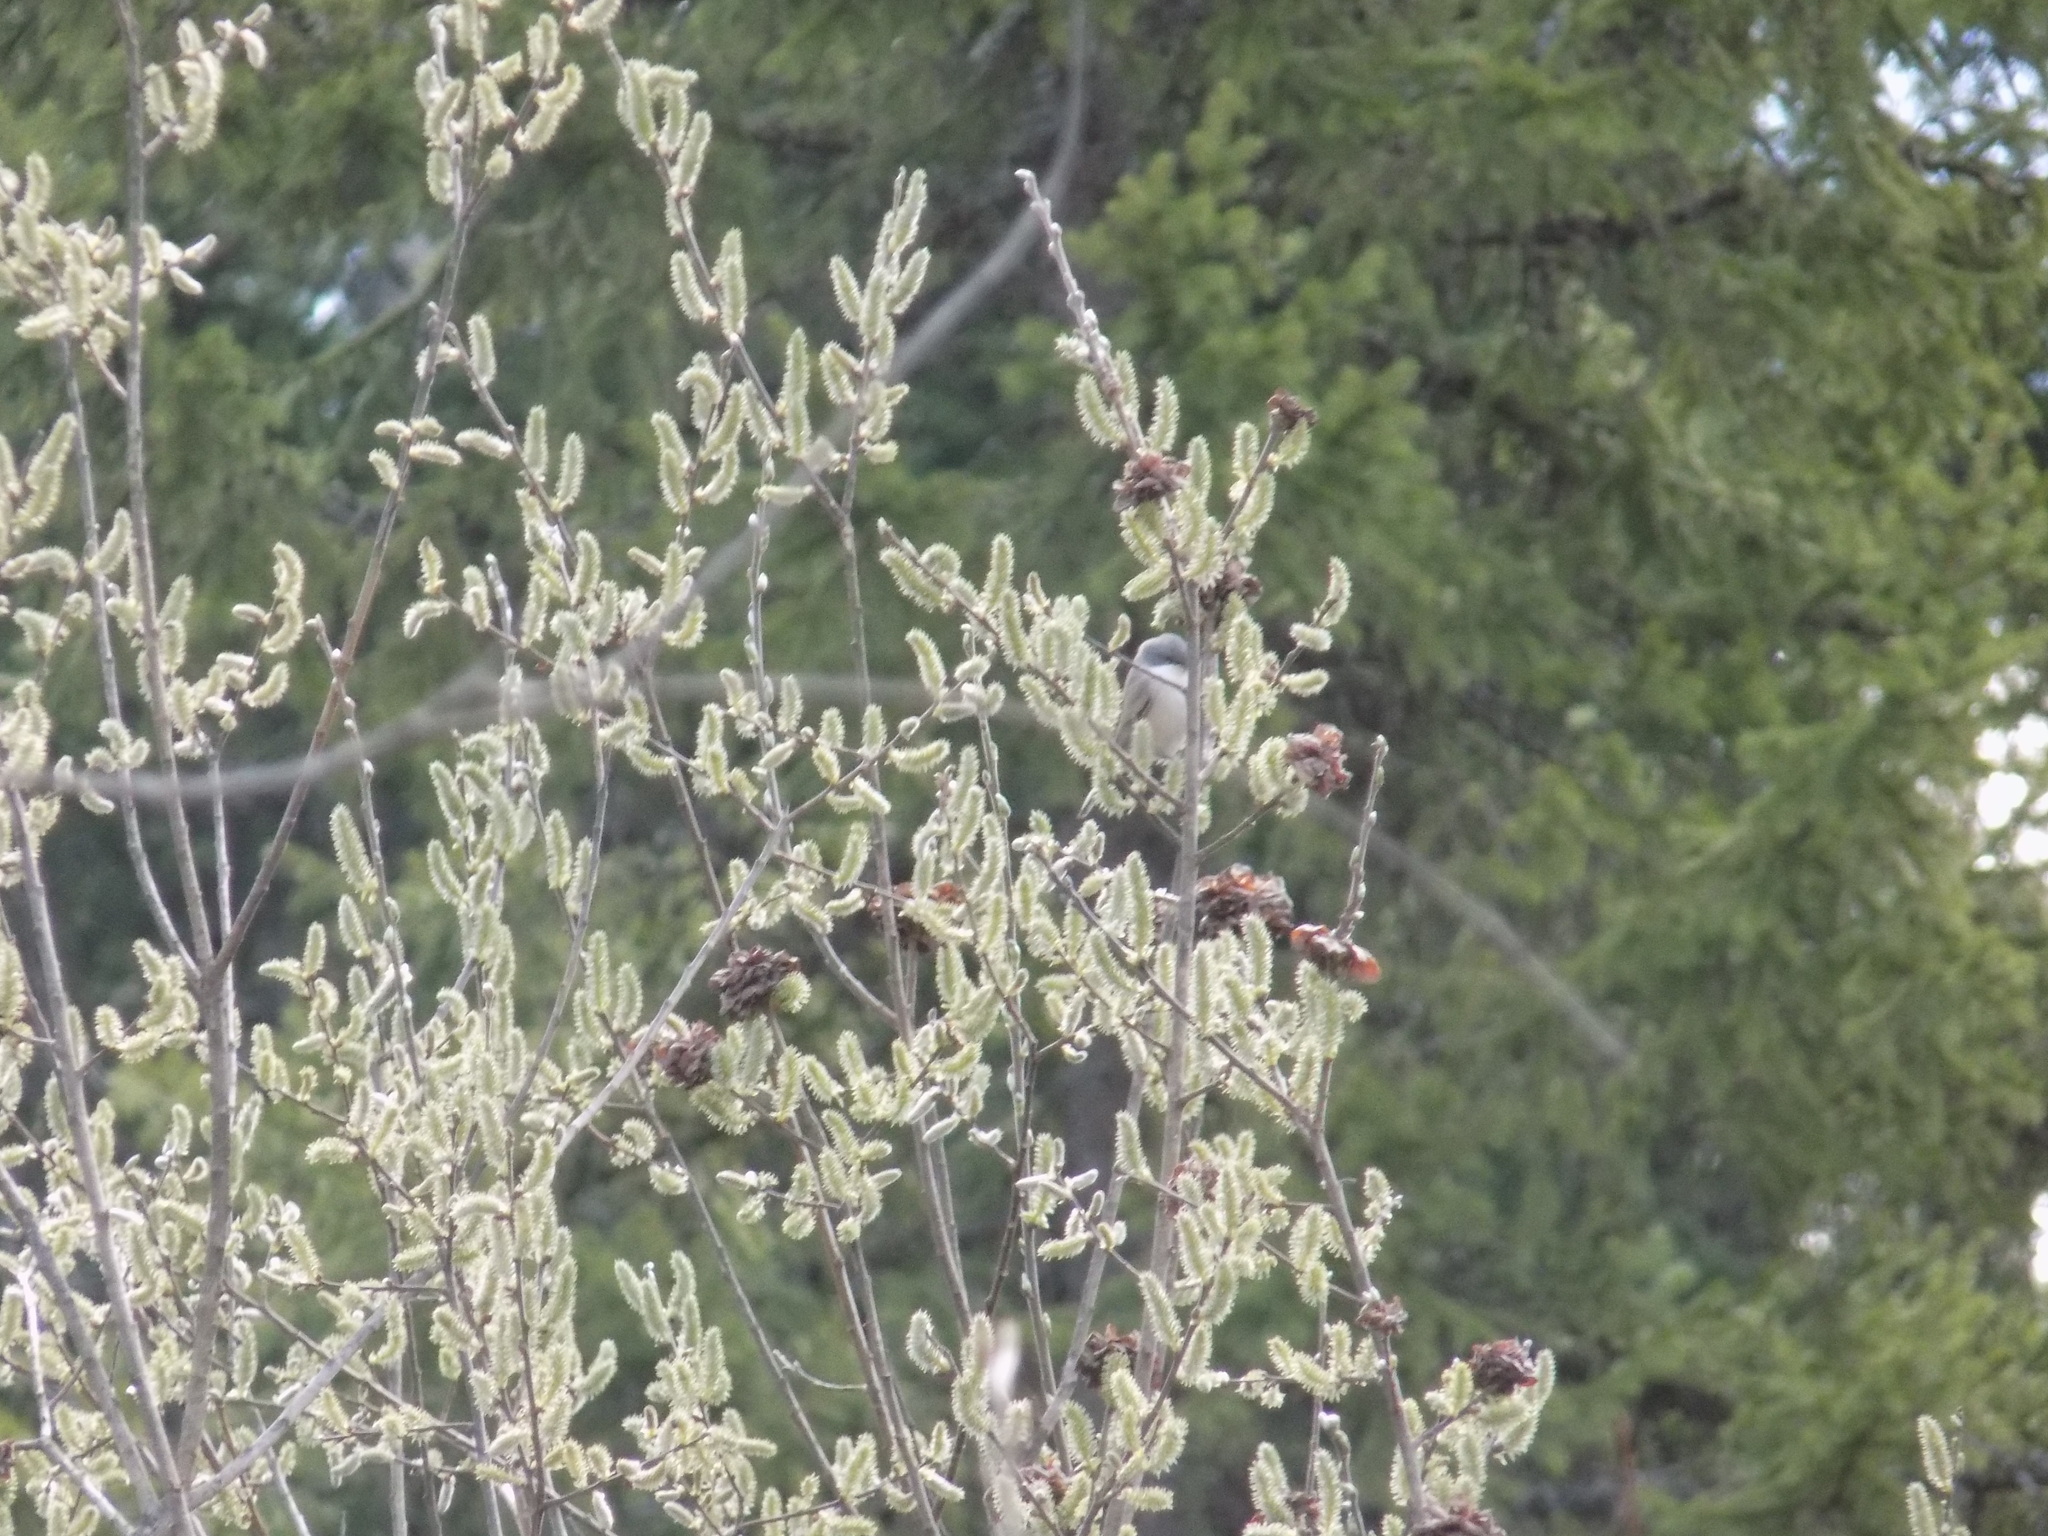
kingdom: Animalia
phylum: Chordata
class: Aves
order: Passeriformes
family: Sylviidae
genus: Sylvia
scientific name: Sylvia curruca
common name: Lesser whitethroat
